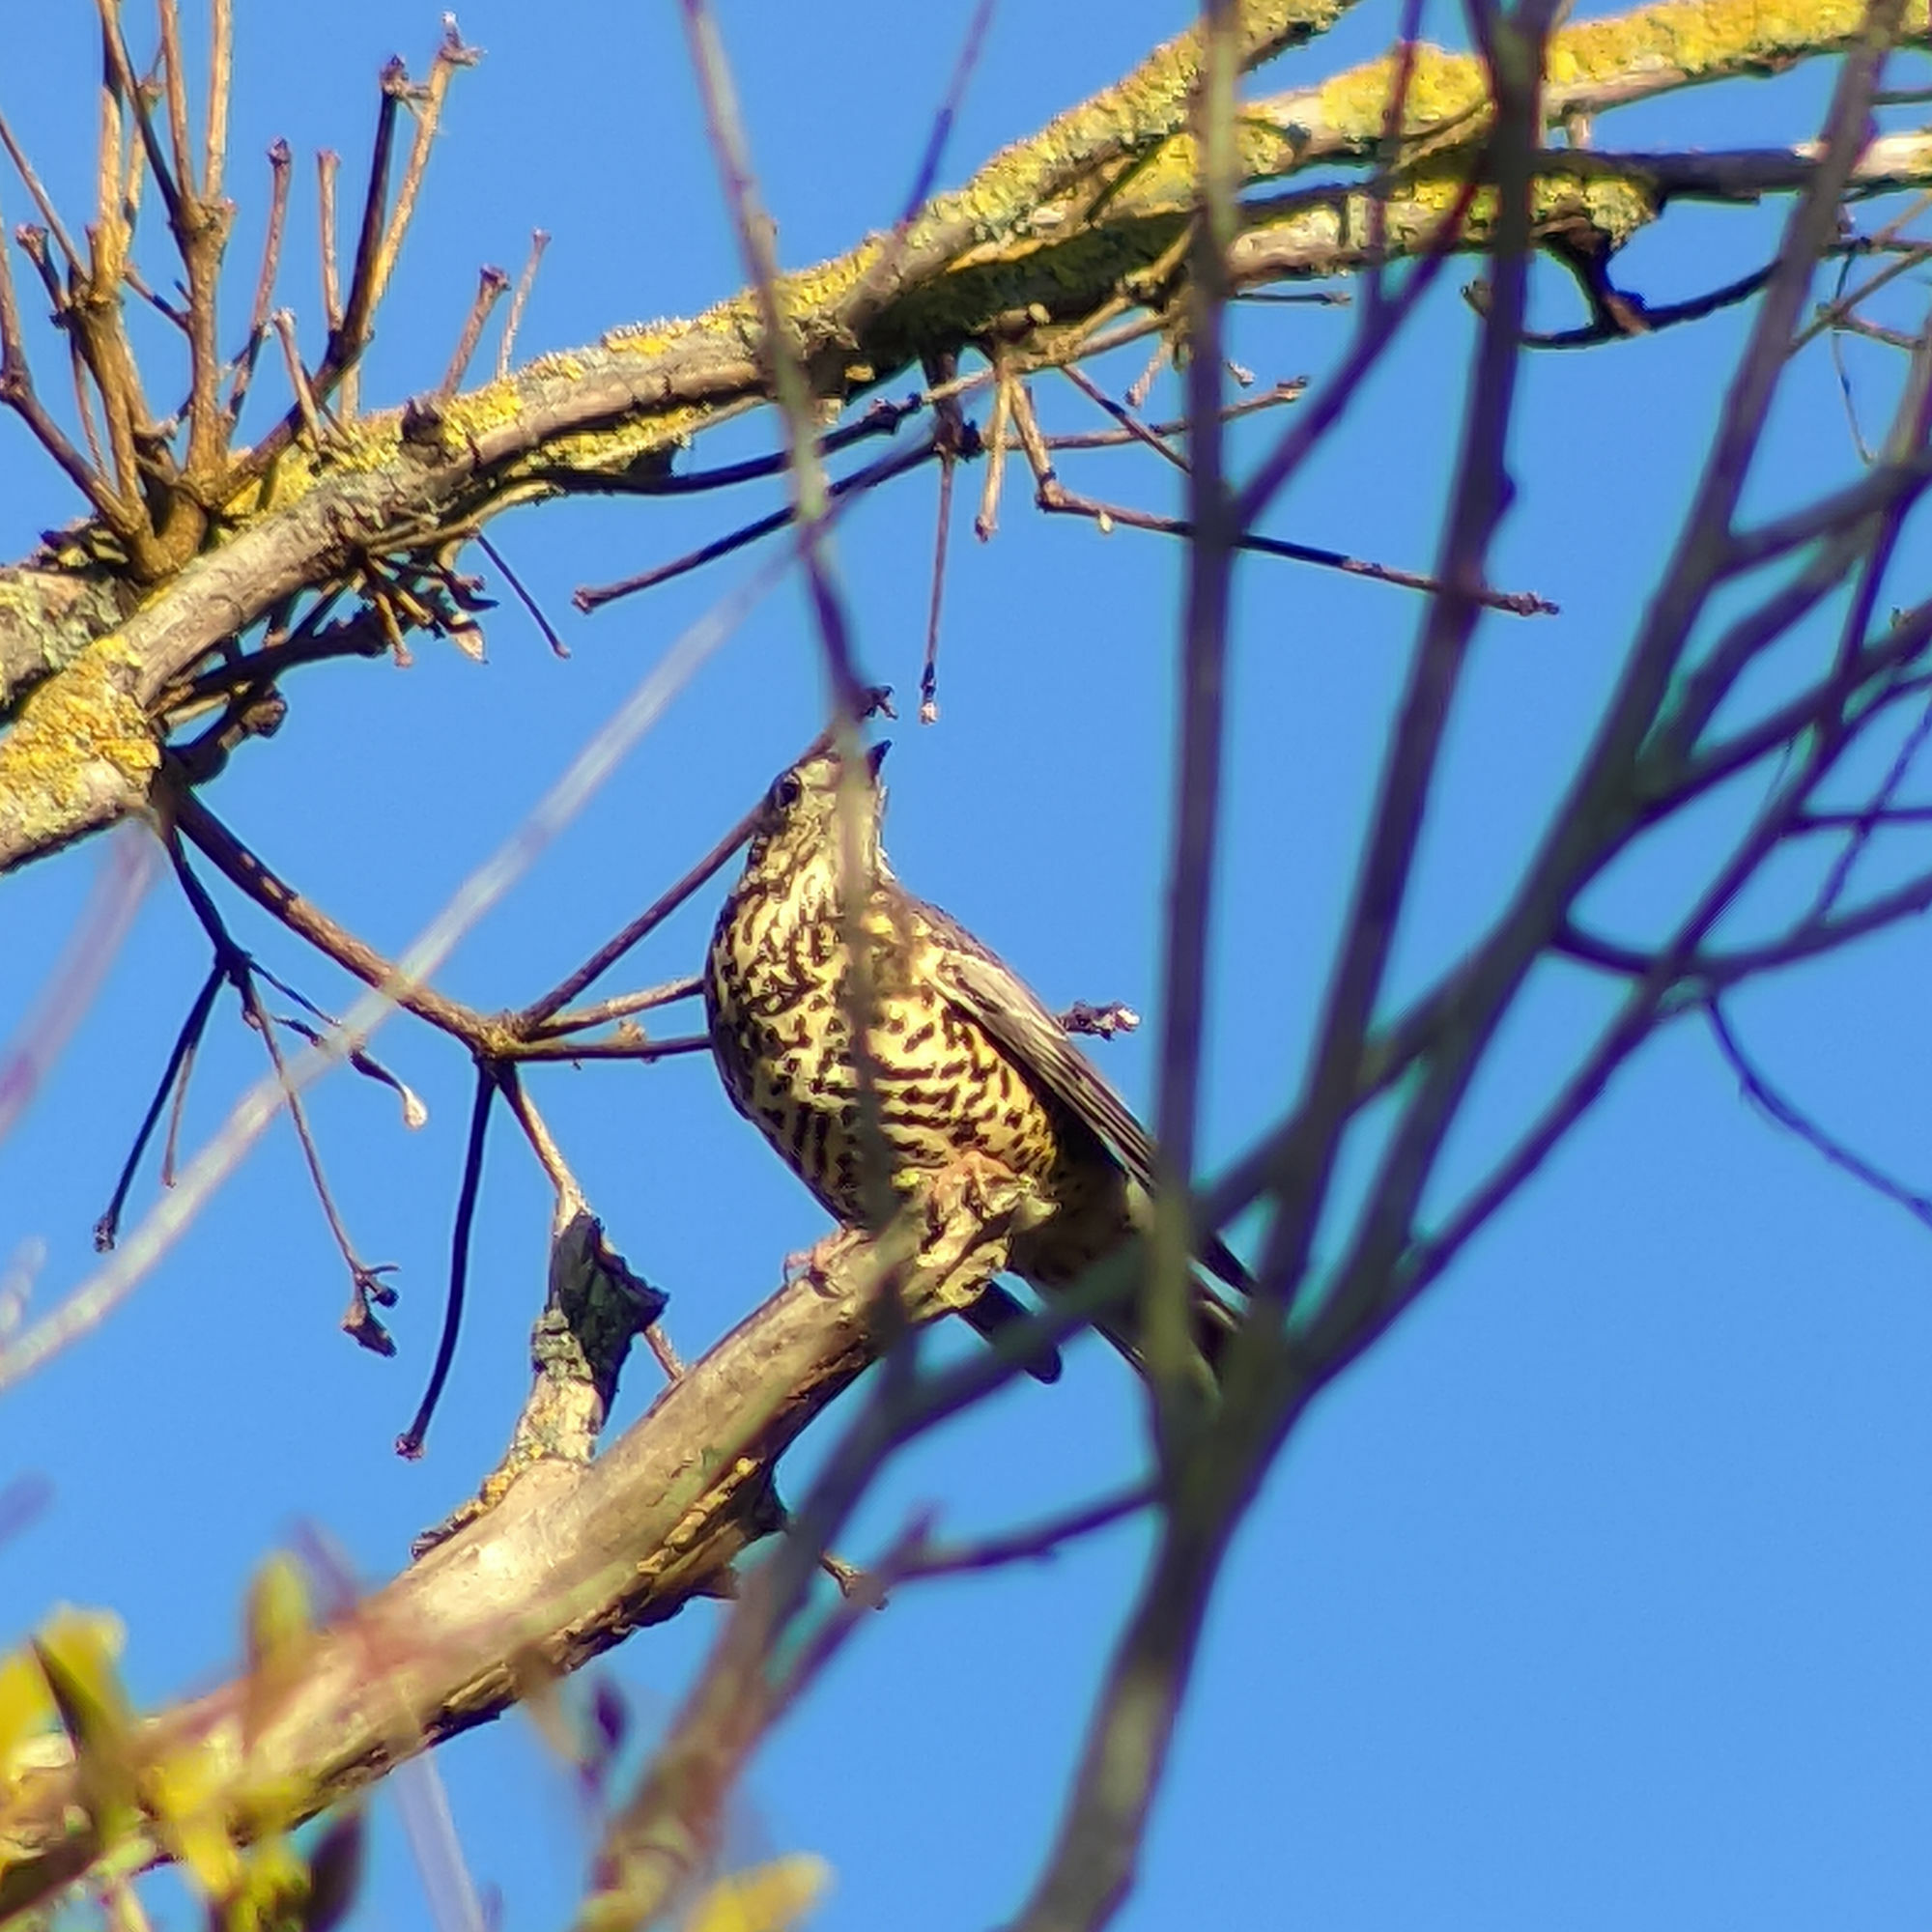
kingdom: Animalia
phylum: Chordata
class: Aves
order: Passeriformes
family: Turdidae
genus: Turdus
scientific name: Turdus viscivorus
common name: Mistle thrush
